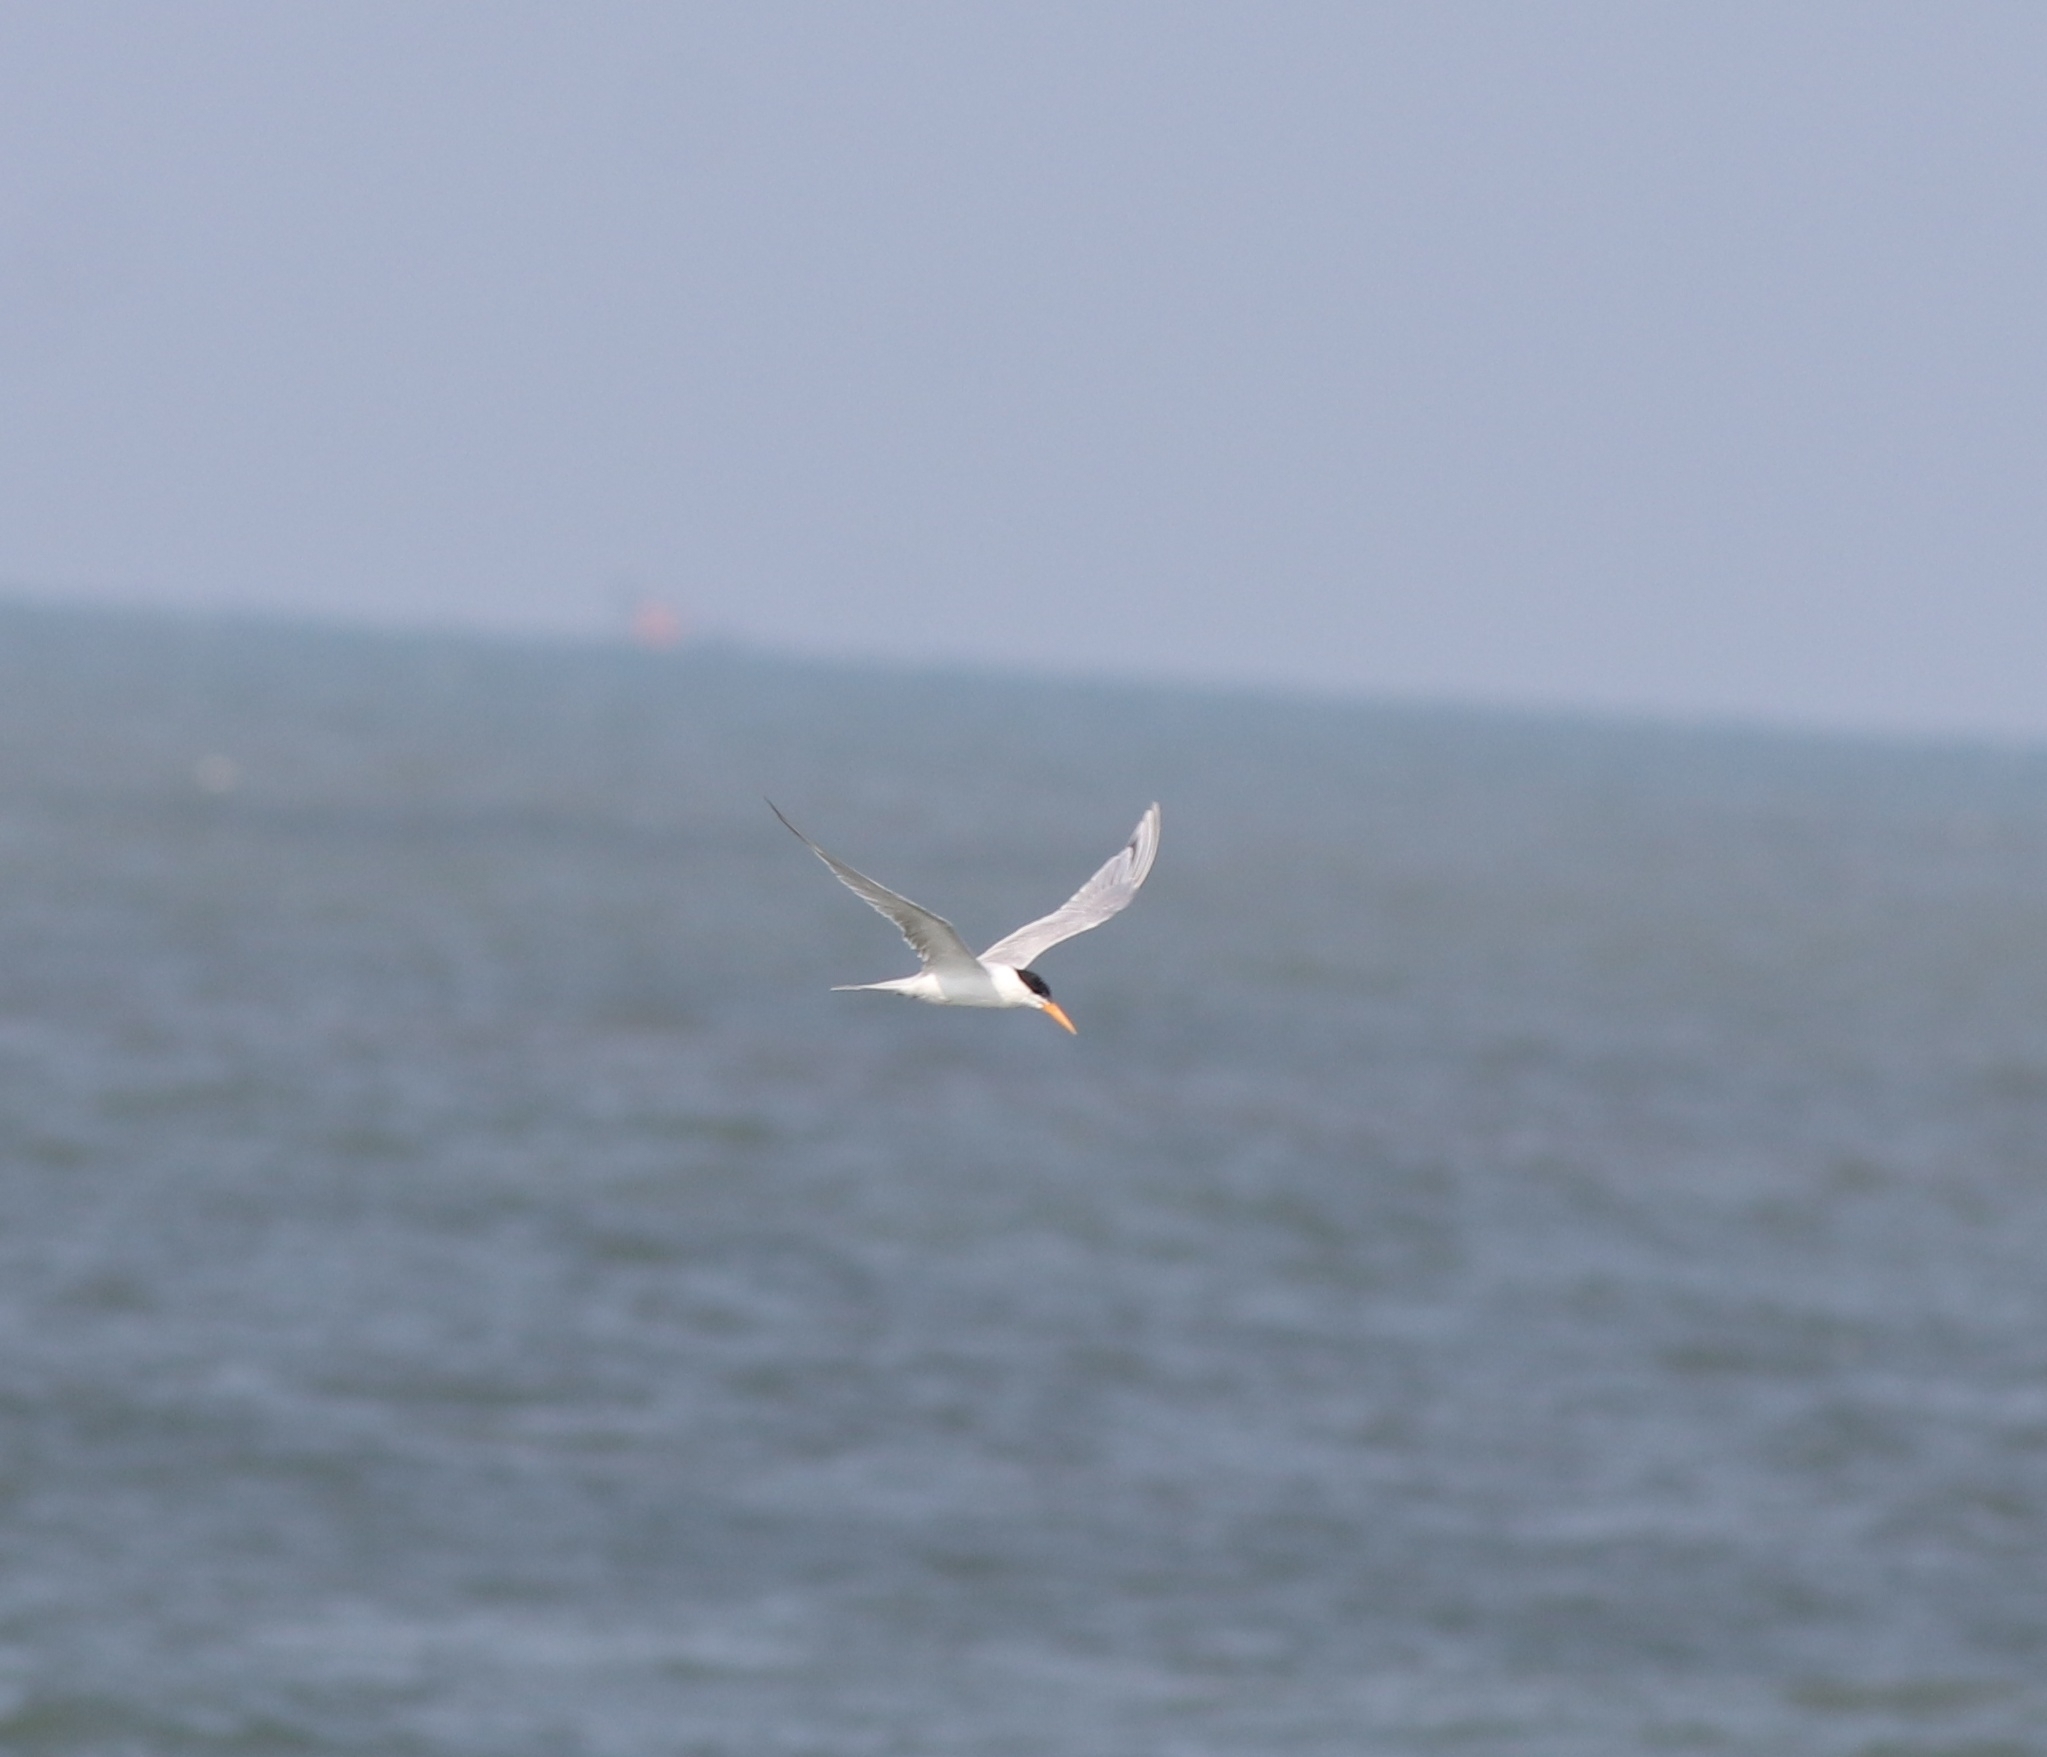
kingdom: Animalia
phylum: Chordata
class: Aves
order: Charadriiformes
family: Laridae
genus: Thalasseus
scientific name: Thalasseus bengalensis
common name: Lesser crested tern
